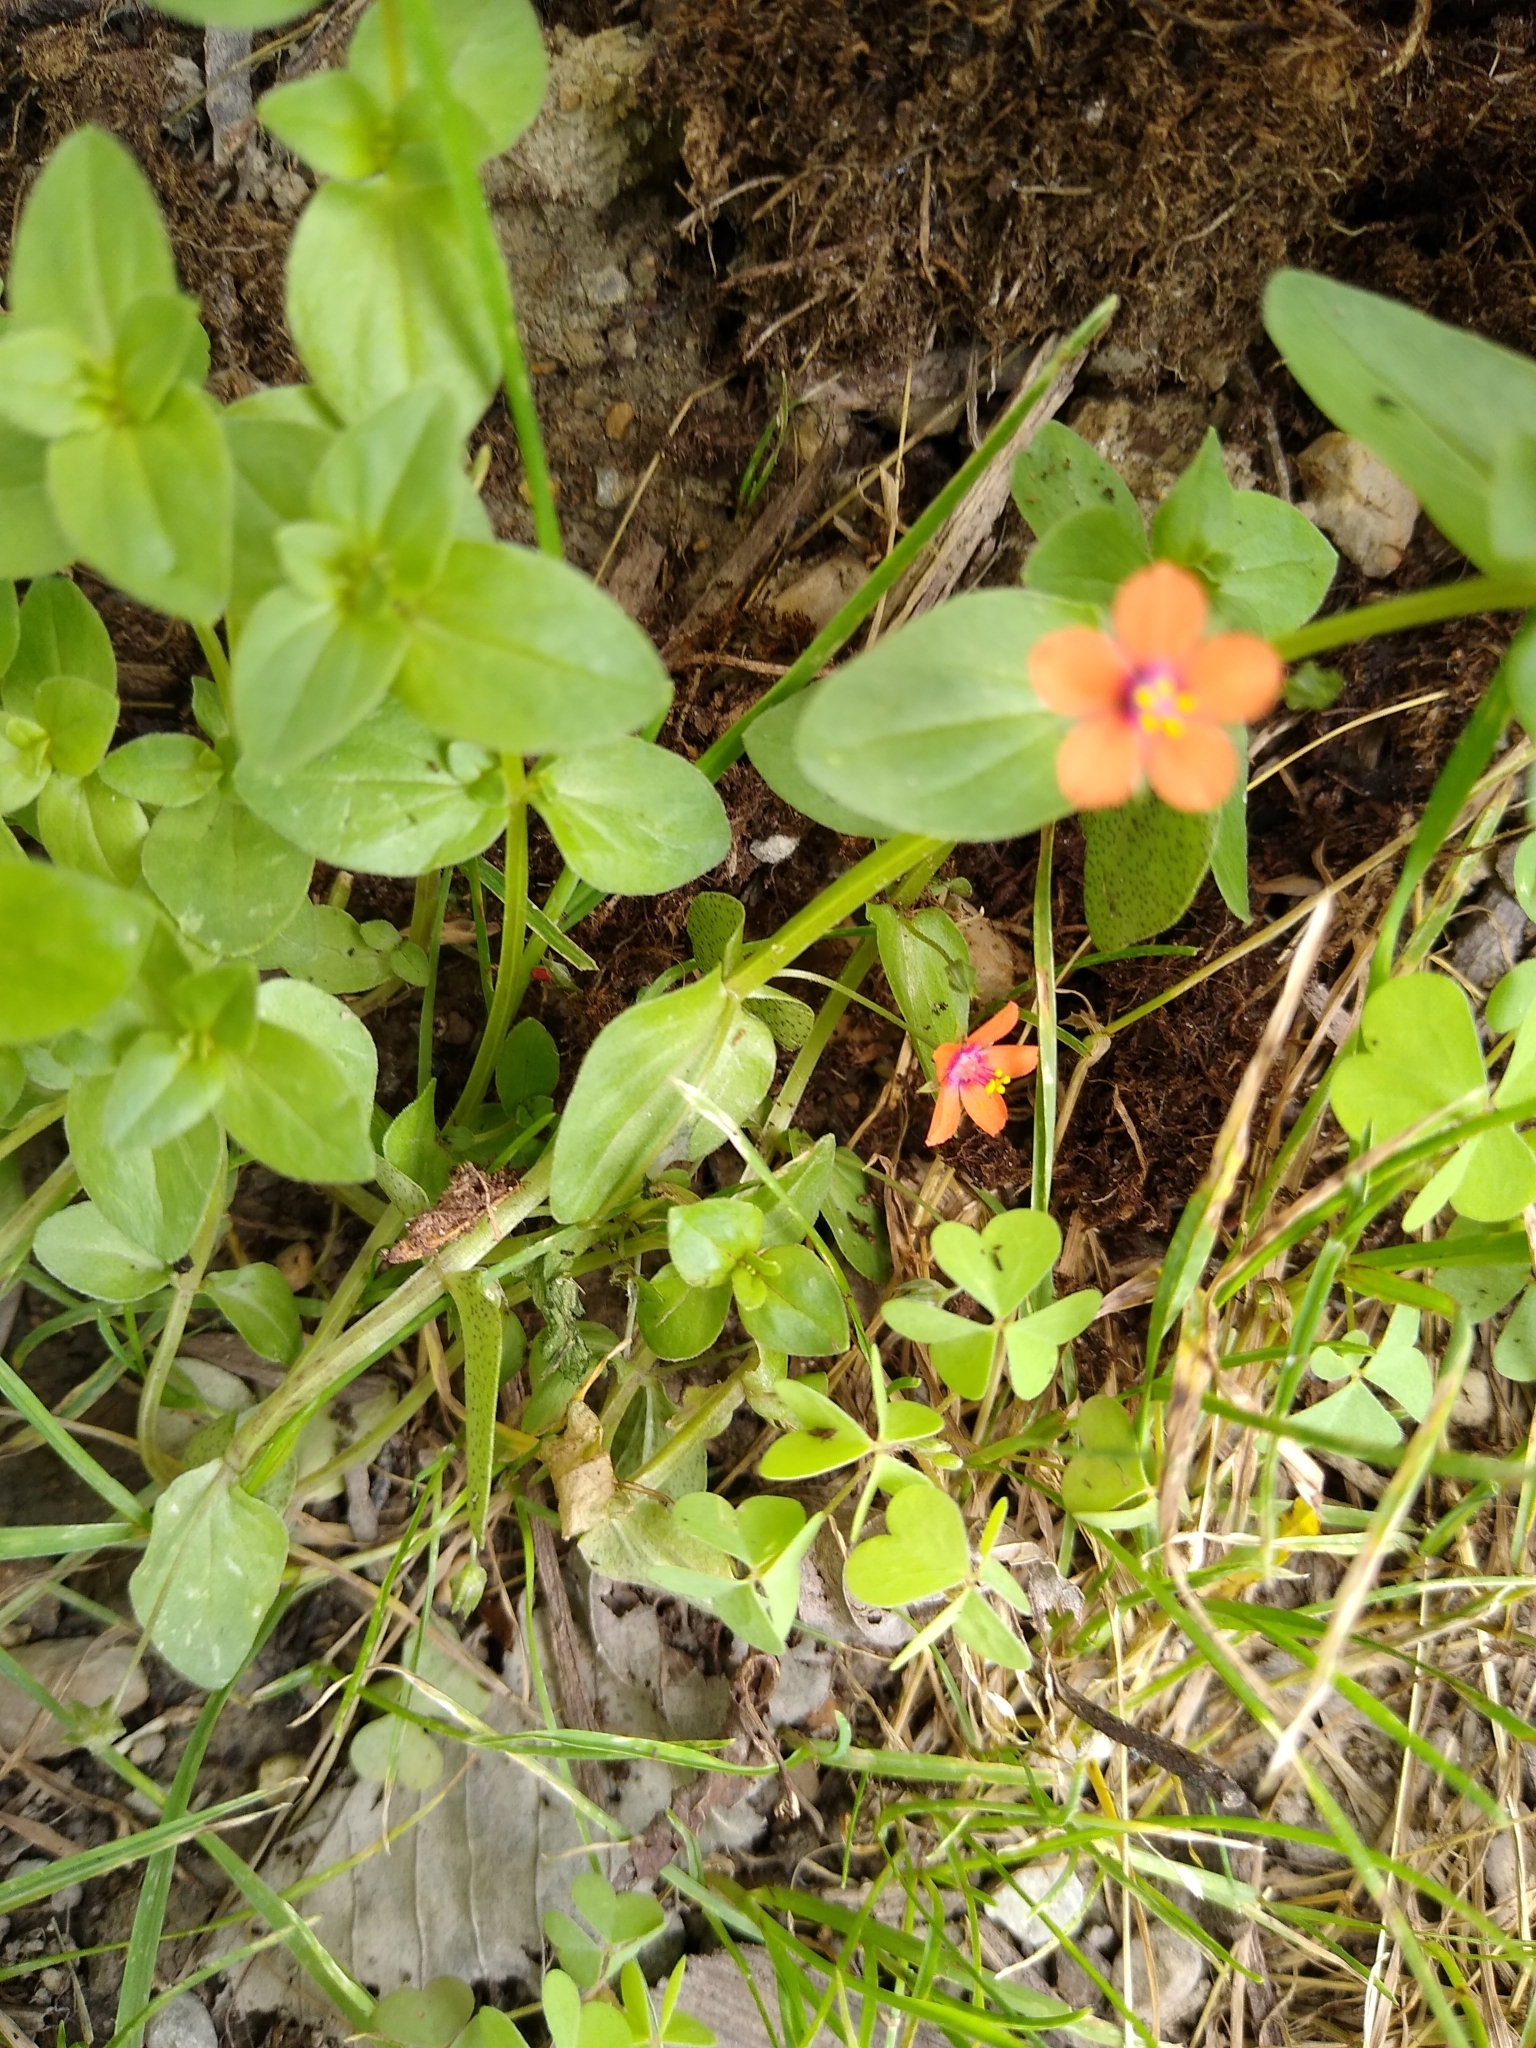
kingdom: Plantae
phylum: Tracheophyta
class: Magnoliopsida
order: Ericales
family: Primulaceae
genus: Lysimachia
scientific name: Lysimachia arvensis
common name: Scarlet pimpernel
